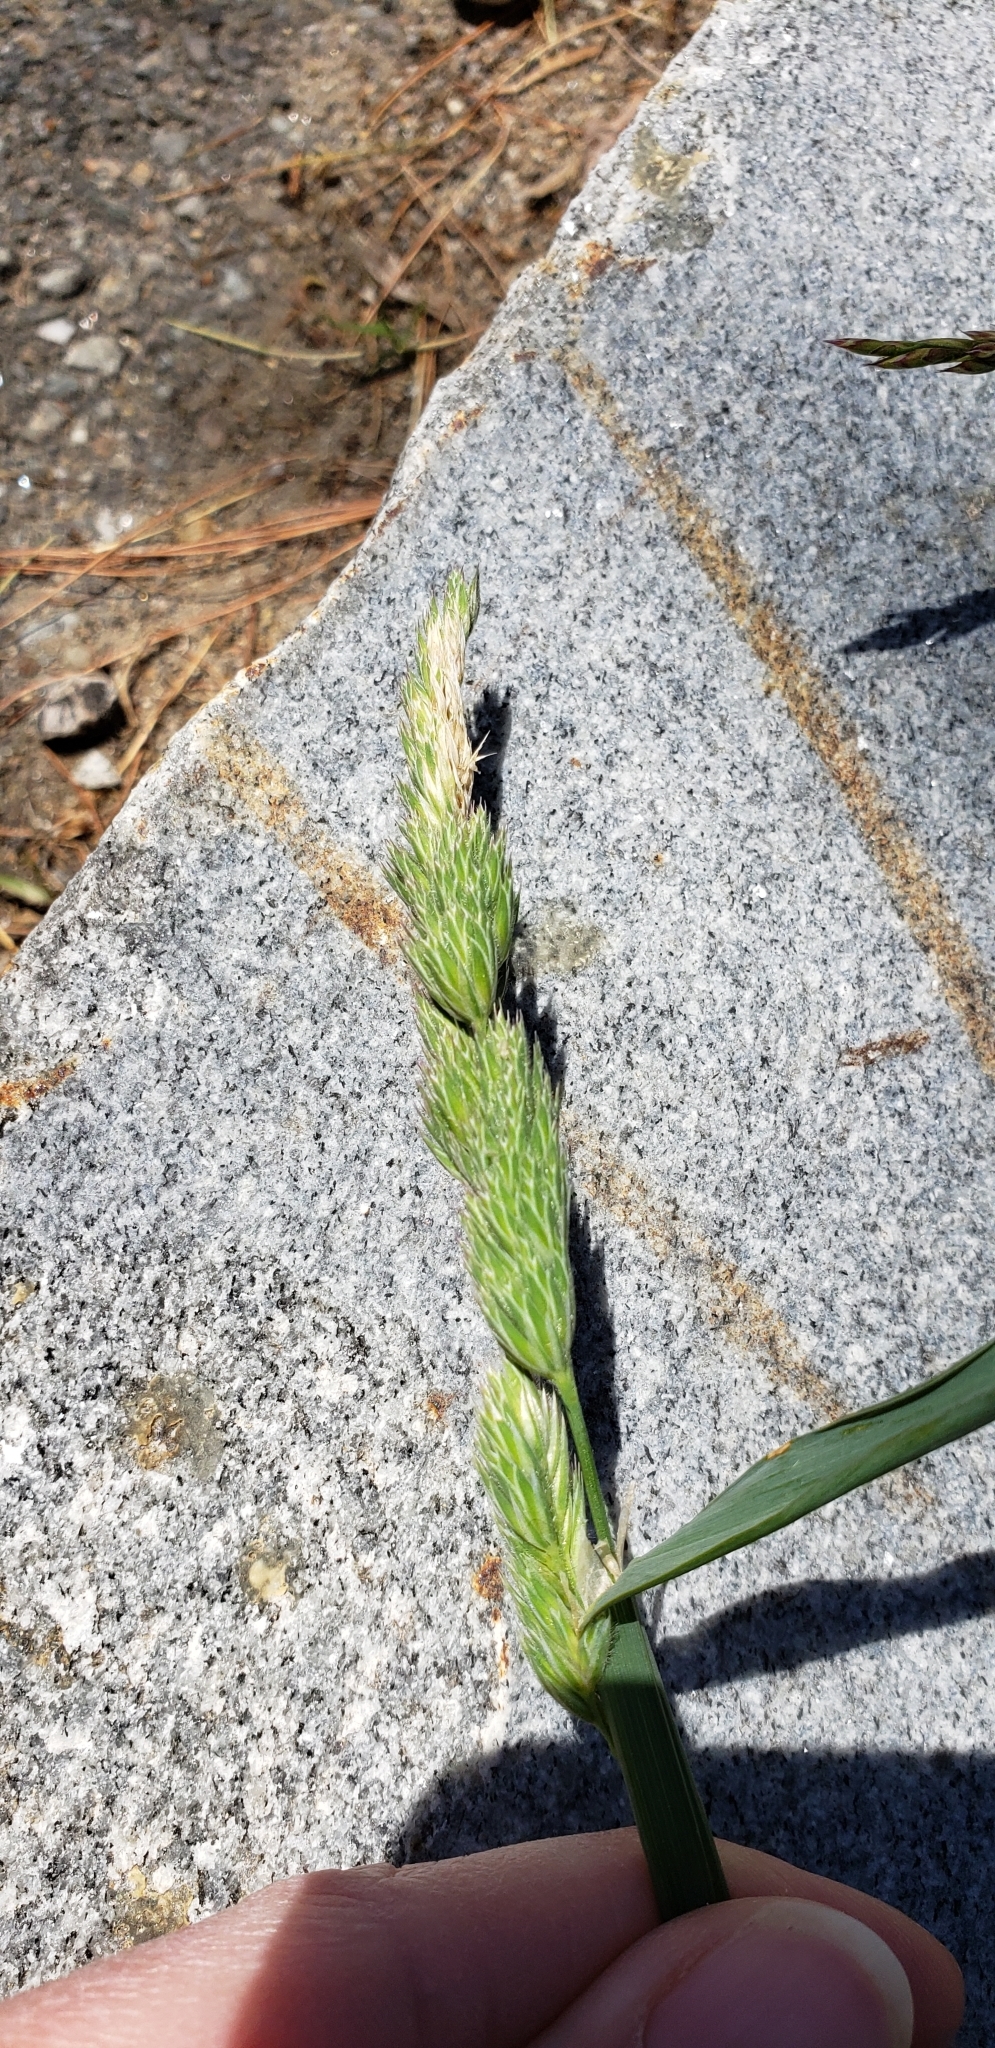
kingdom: Plantae
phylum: Tracheophyta
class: Liliopsida
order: Poales
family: Poaceae
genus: Dactylis
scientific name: Dactylis glomerata
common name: Orchardgrass
